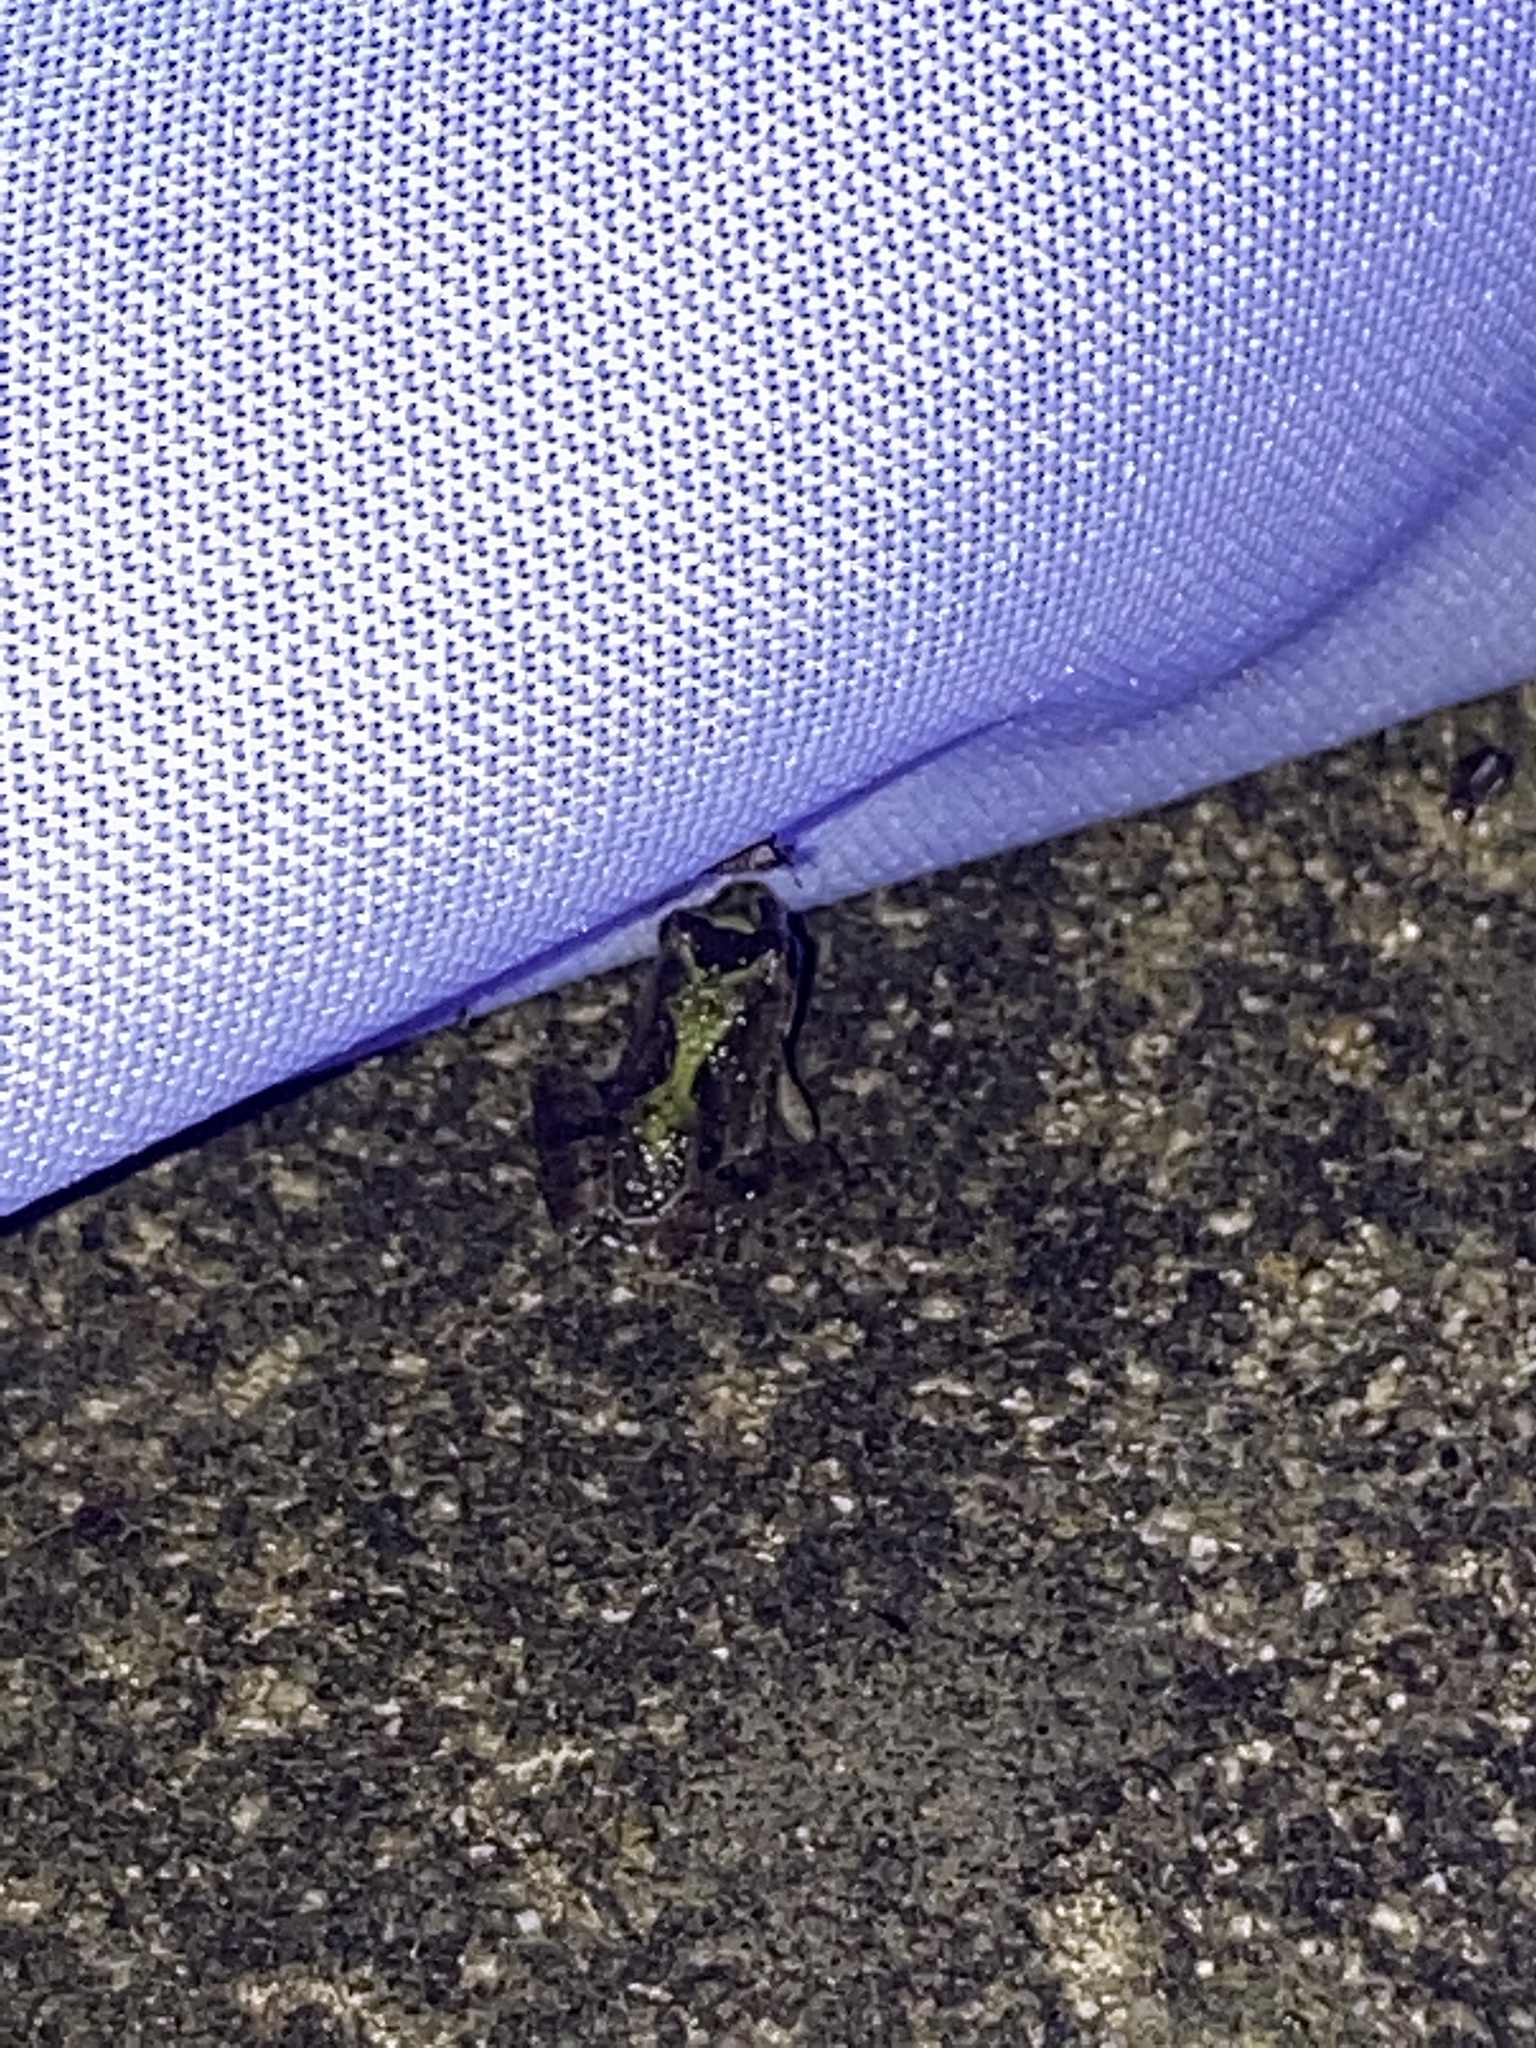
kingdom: Animalia
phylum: Chordata
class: Amphibia
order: Anura
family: Hylidae
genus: Acris
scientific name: Acris blanchardi
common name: Blanchard's cricket frog
